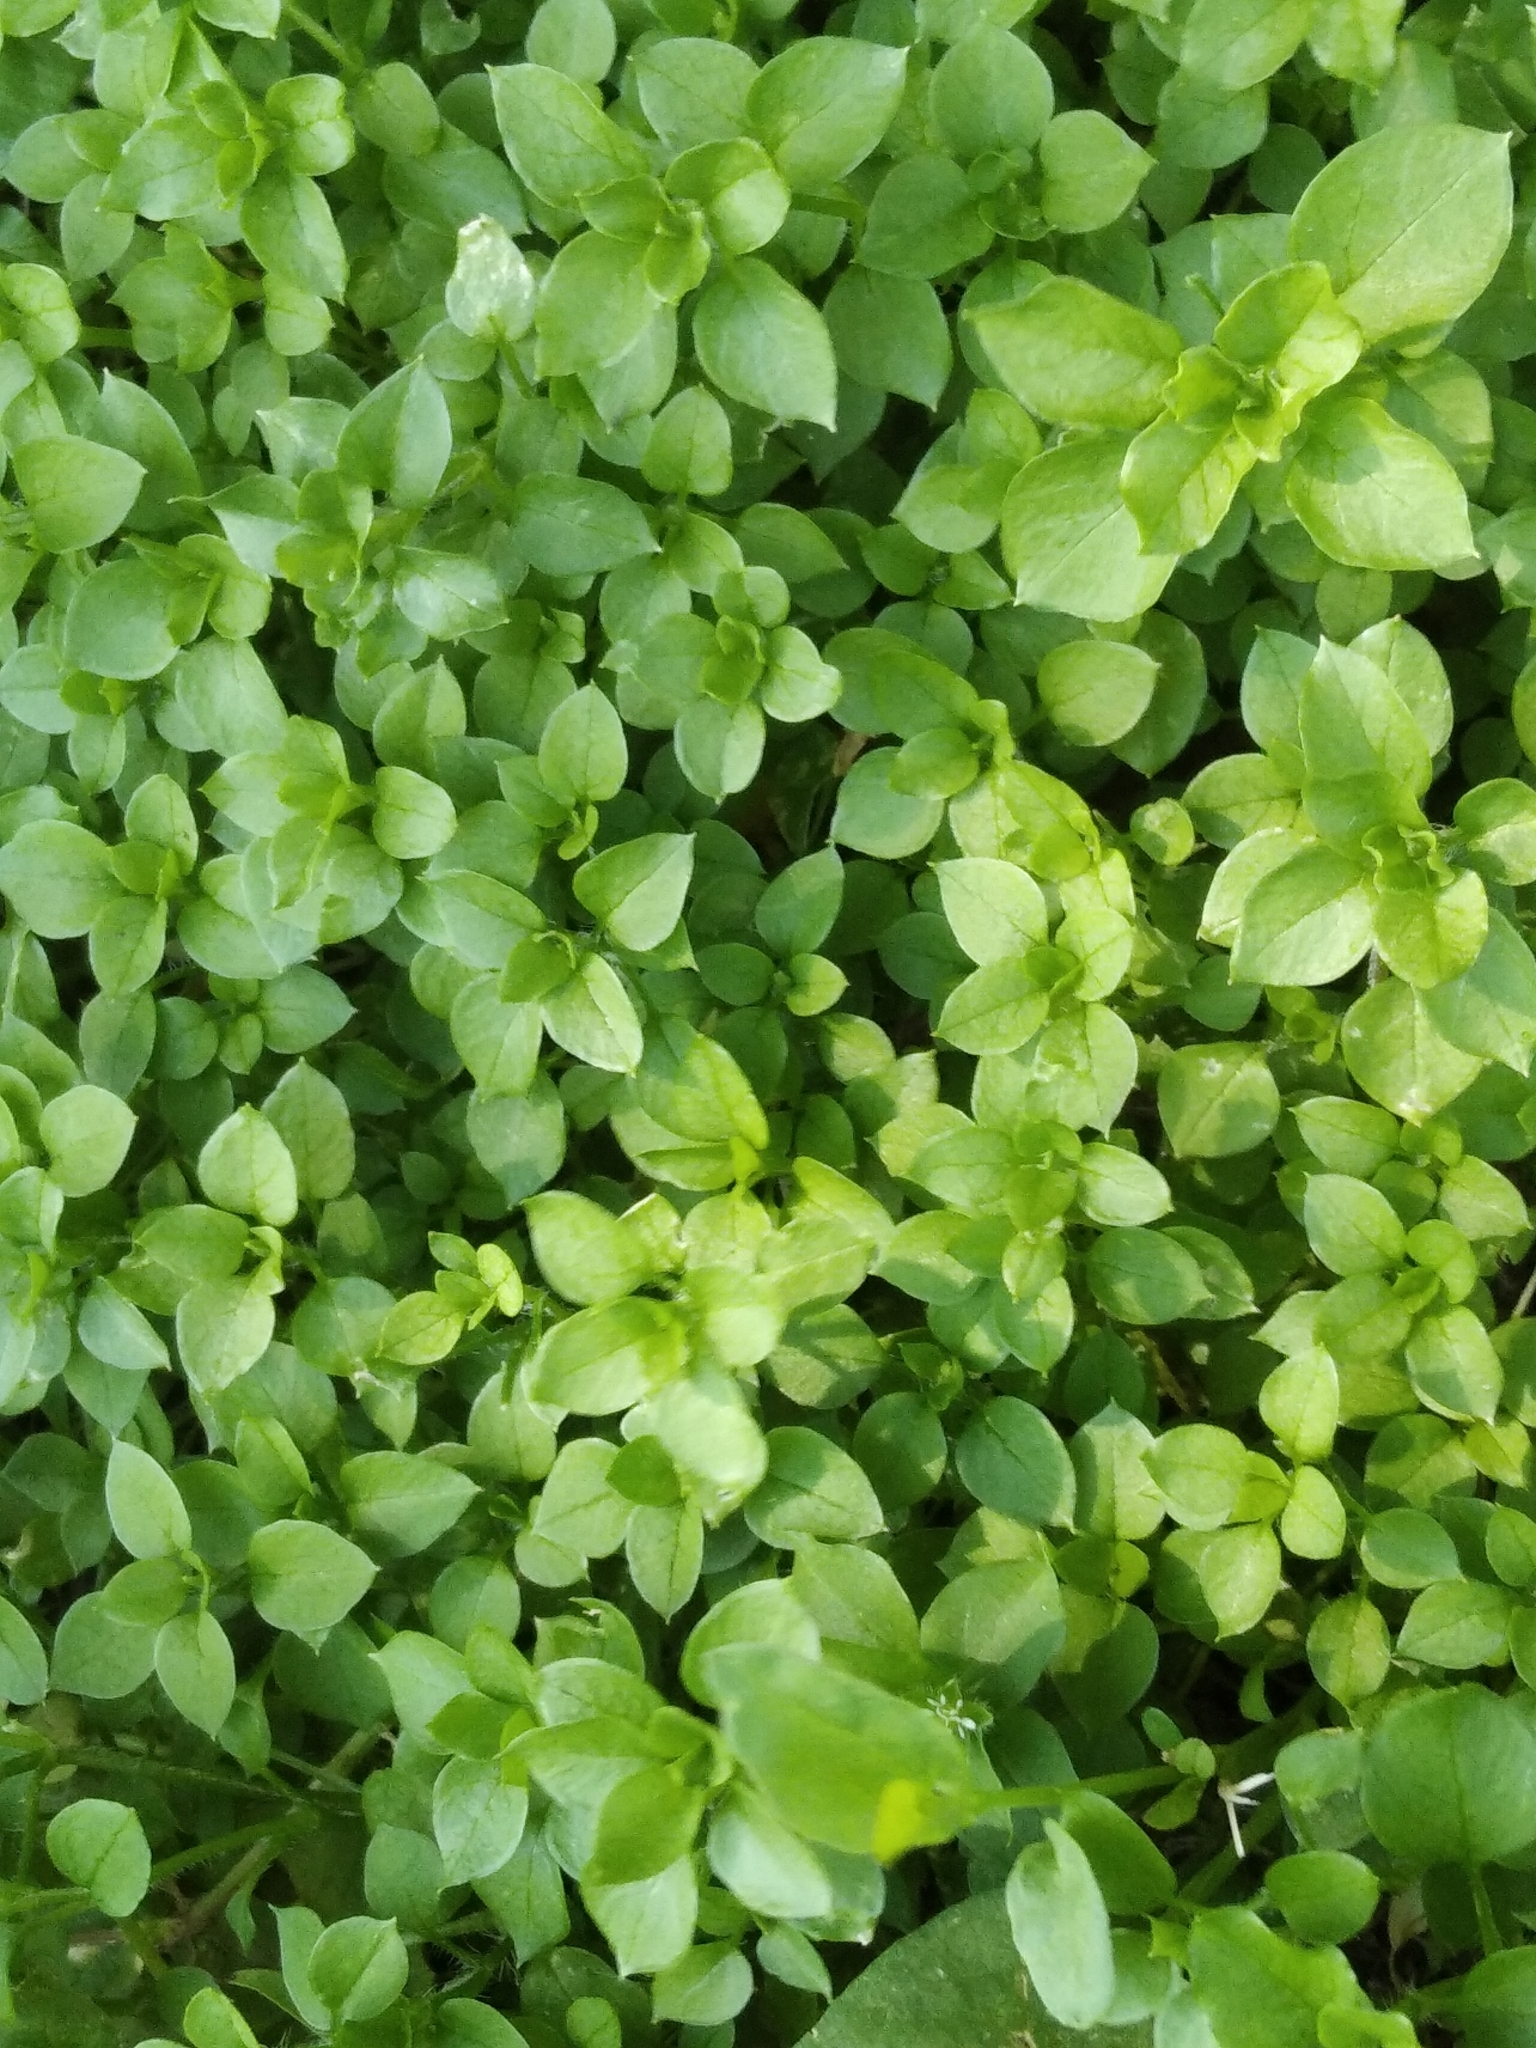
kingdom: Plantae
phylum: Tracheophyta
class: Magnoliopsida
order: Caryophyllales
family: Caryophyllaceae
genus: Stellaria
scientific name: Stellaria media
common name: Common chickweed
